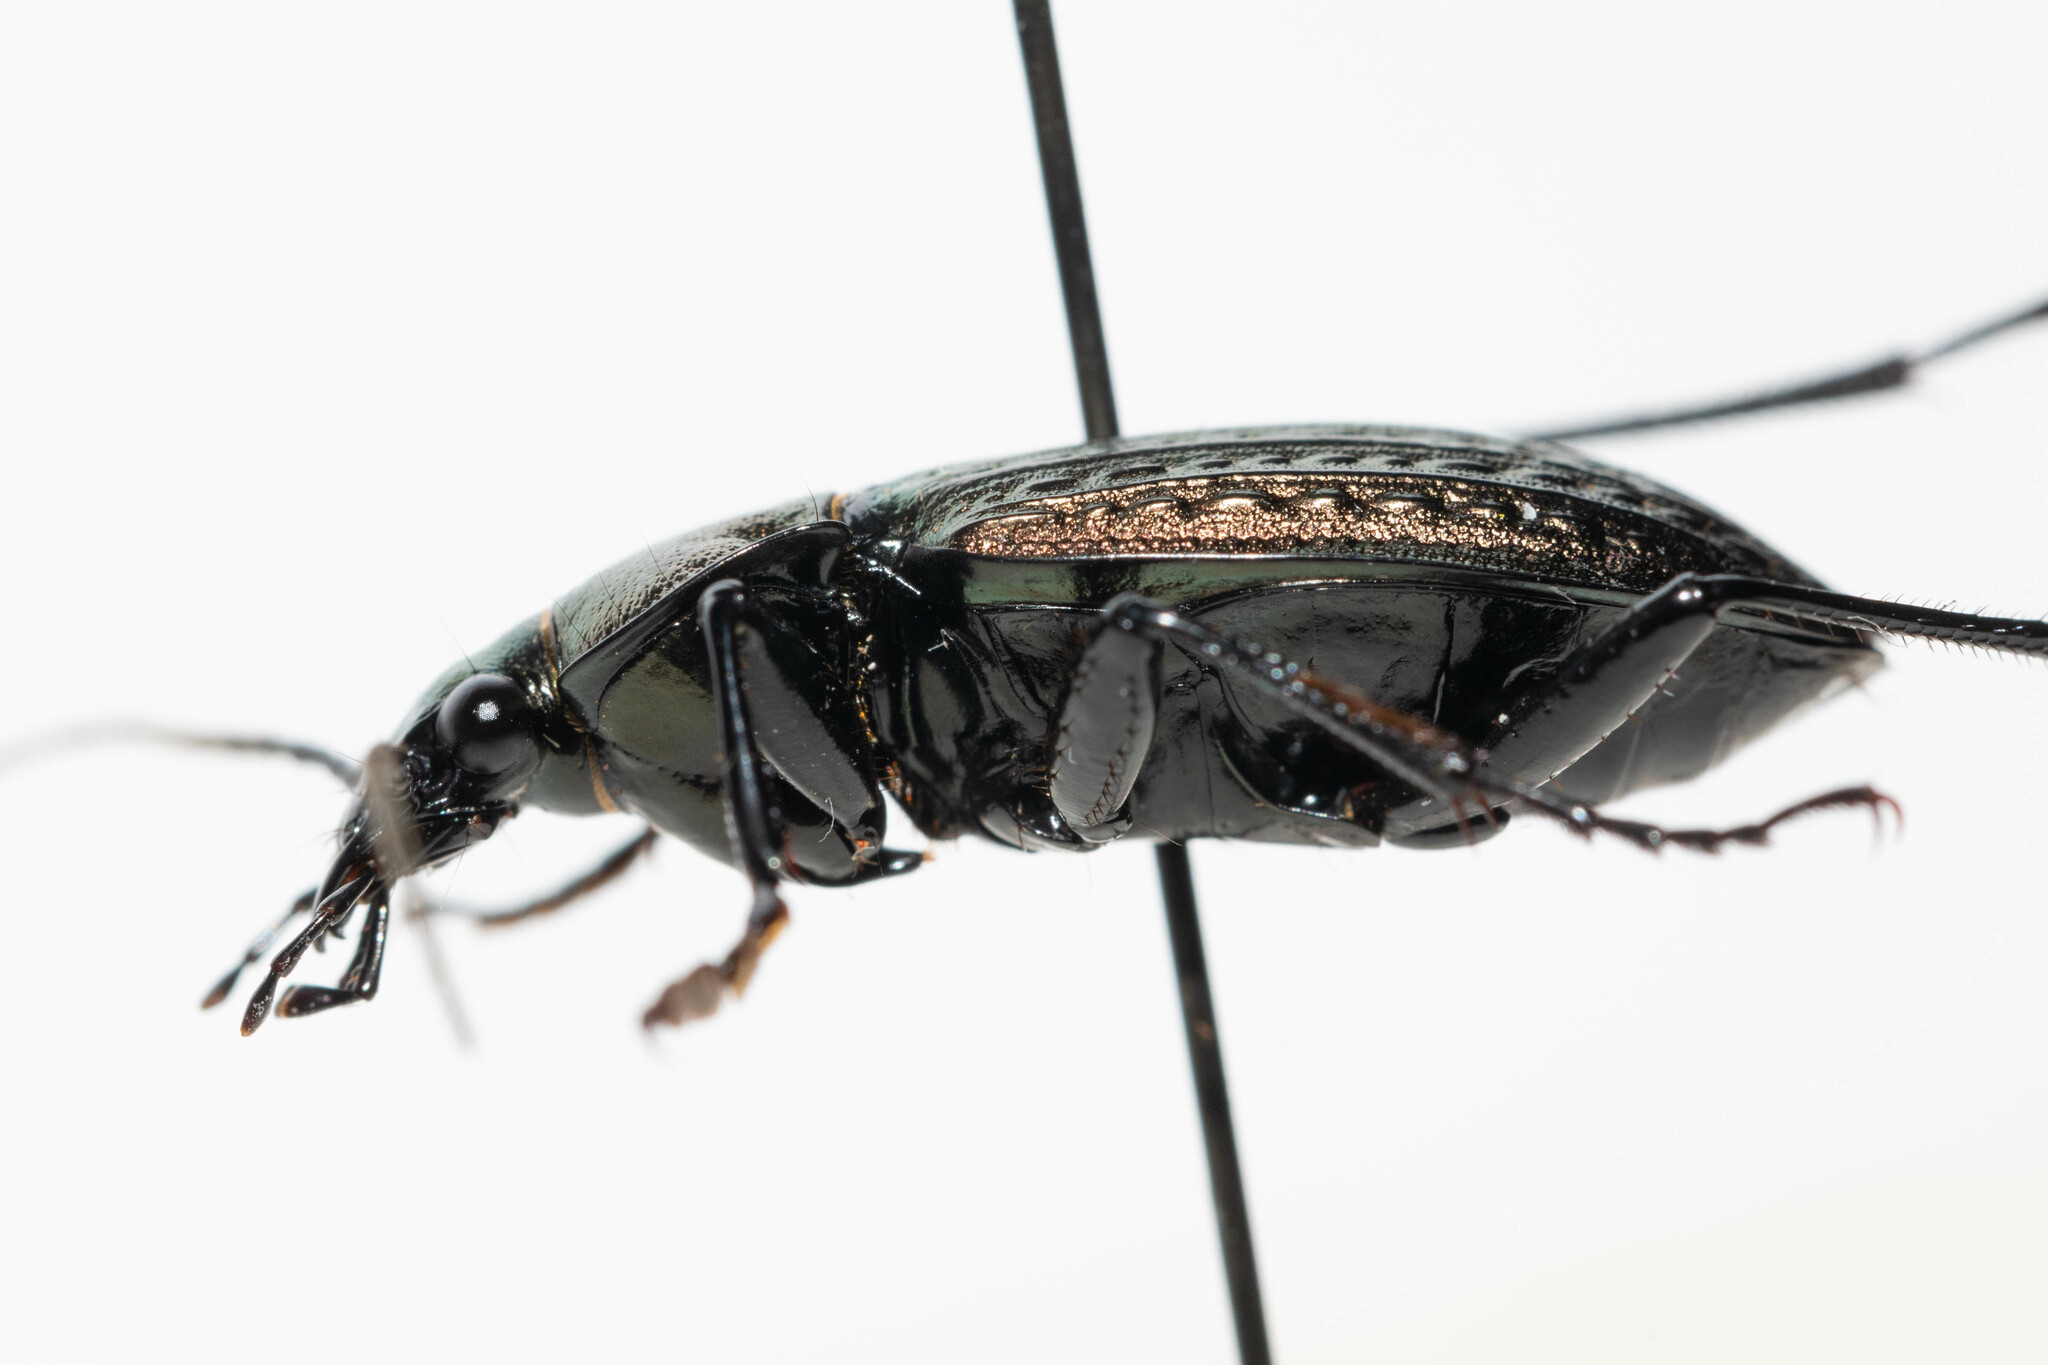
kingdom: Animalia
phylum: Arthropoda
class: Insecta
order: Coleoptera
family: Carabidae
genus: Carabus
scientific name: Carabus granulatus
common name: Granulate ground beetle
